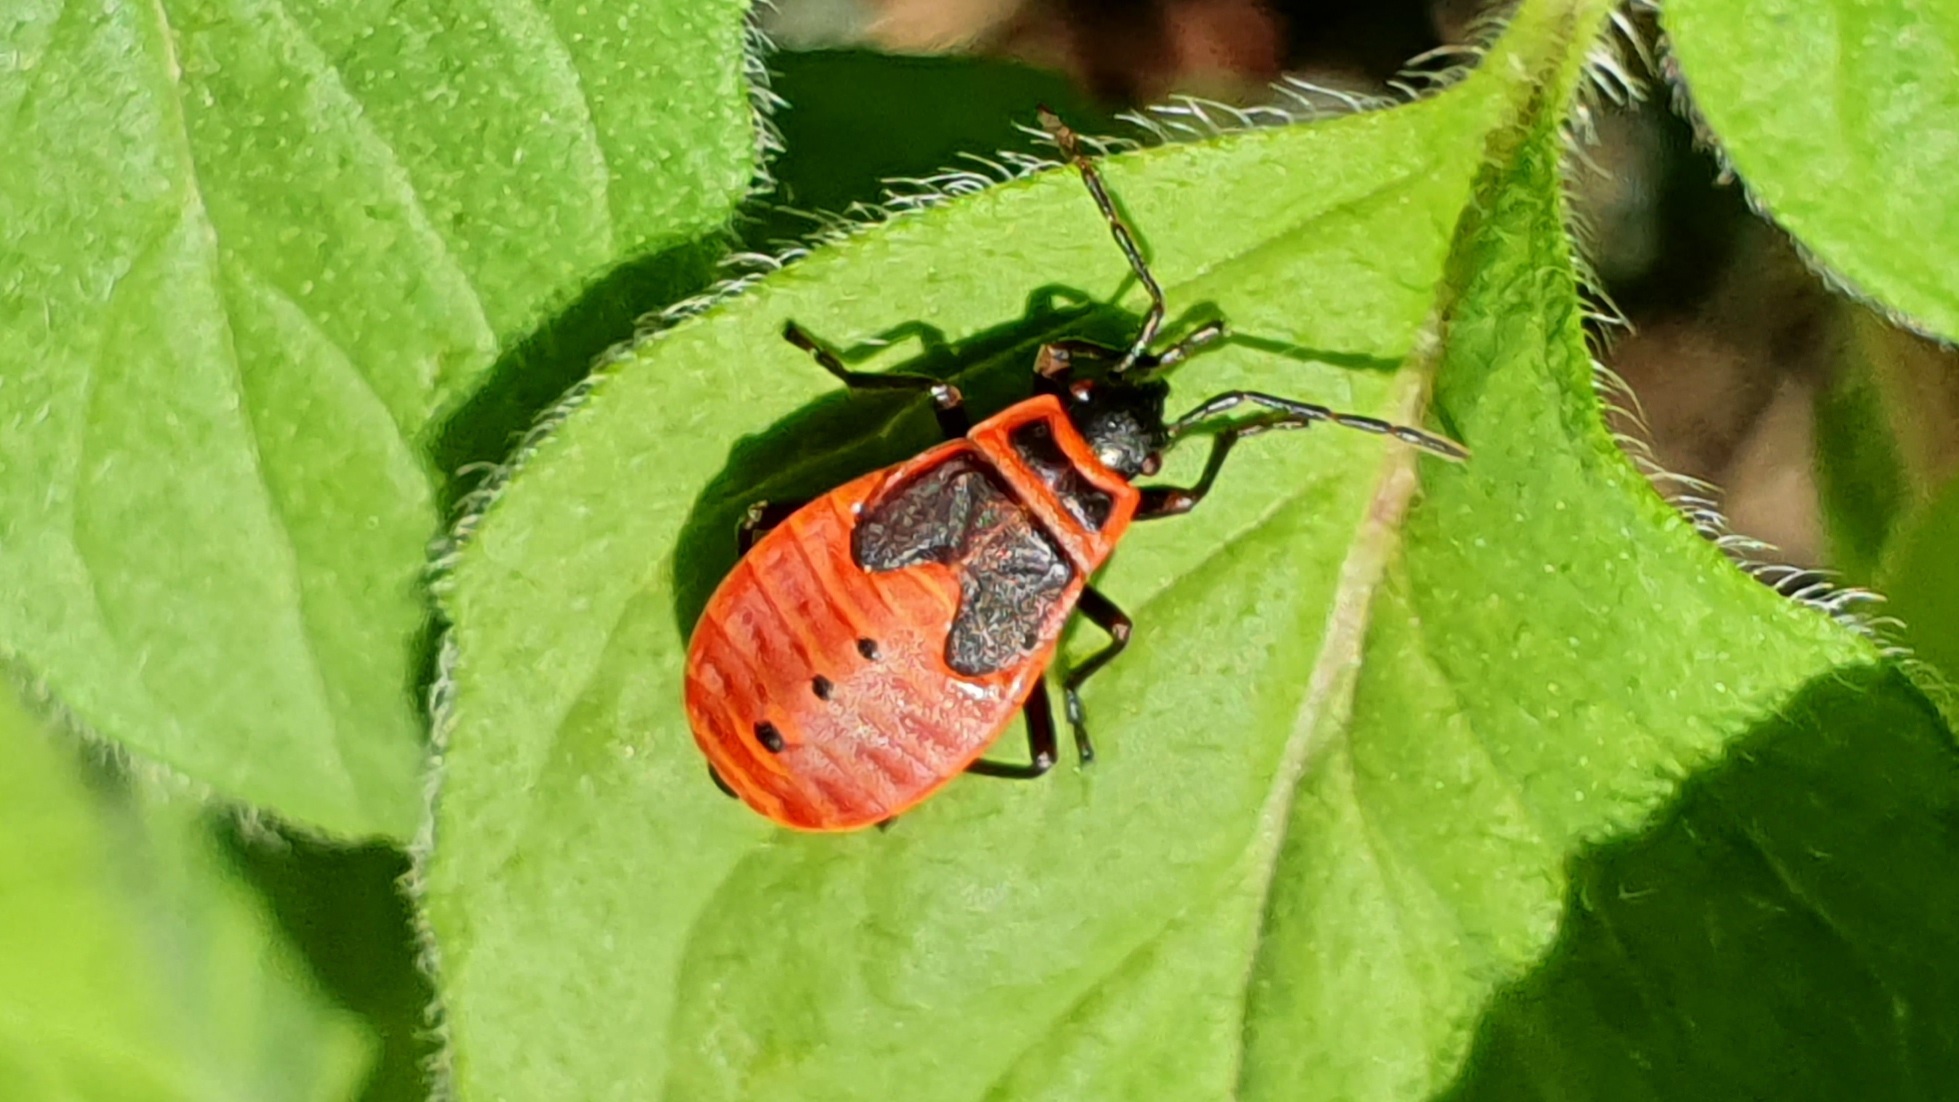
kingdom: Animalia
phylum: Arthropoda
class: Insecta
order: Hemiptera
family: Pyrrhocoridae
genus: Pyrrhocoris
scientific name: Pyrrhocoris apterus
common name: Firebug
